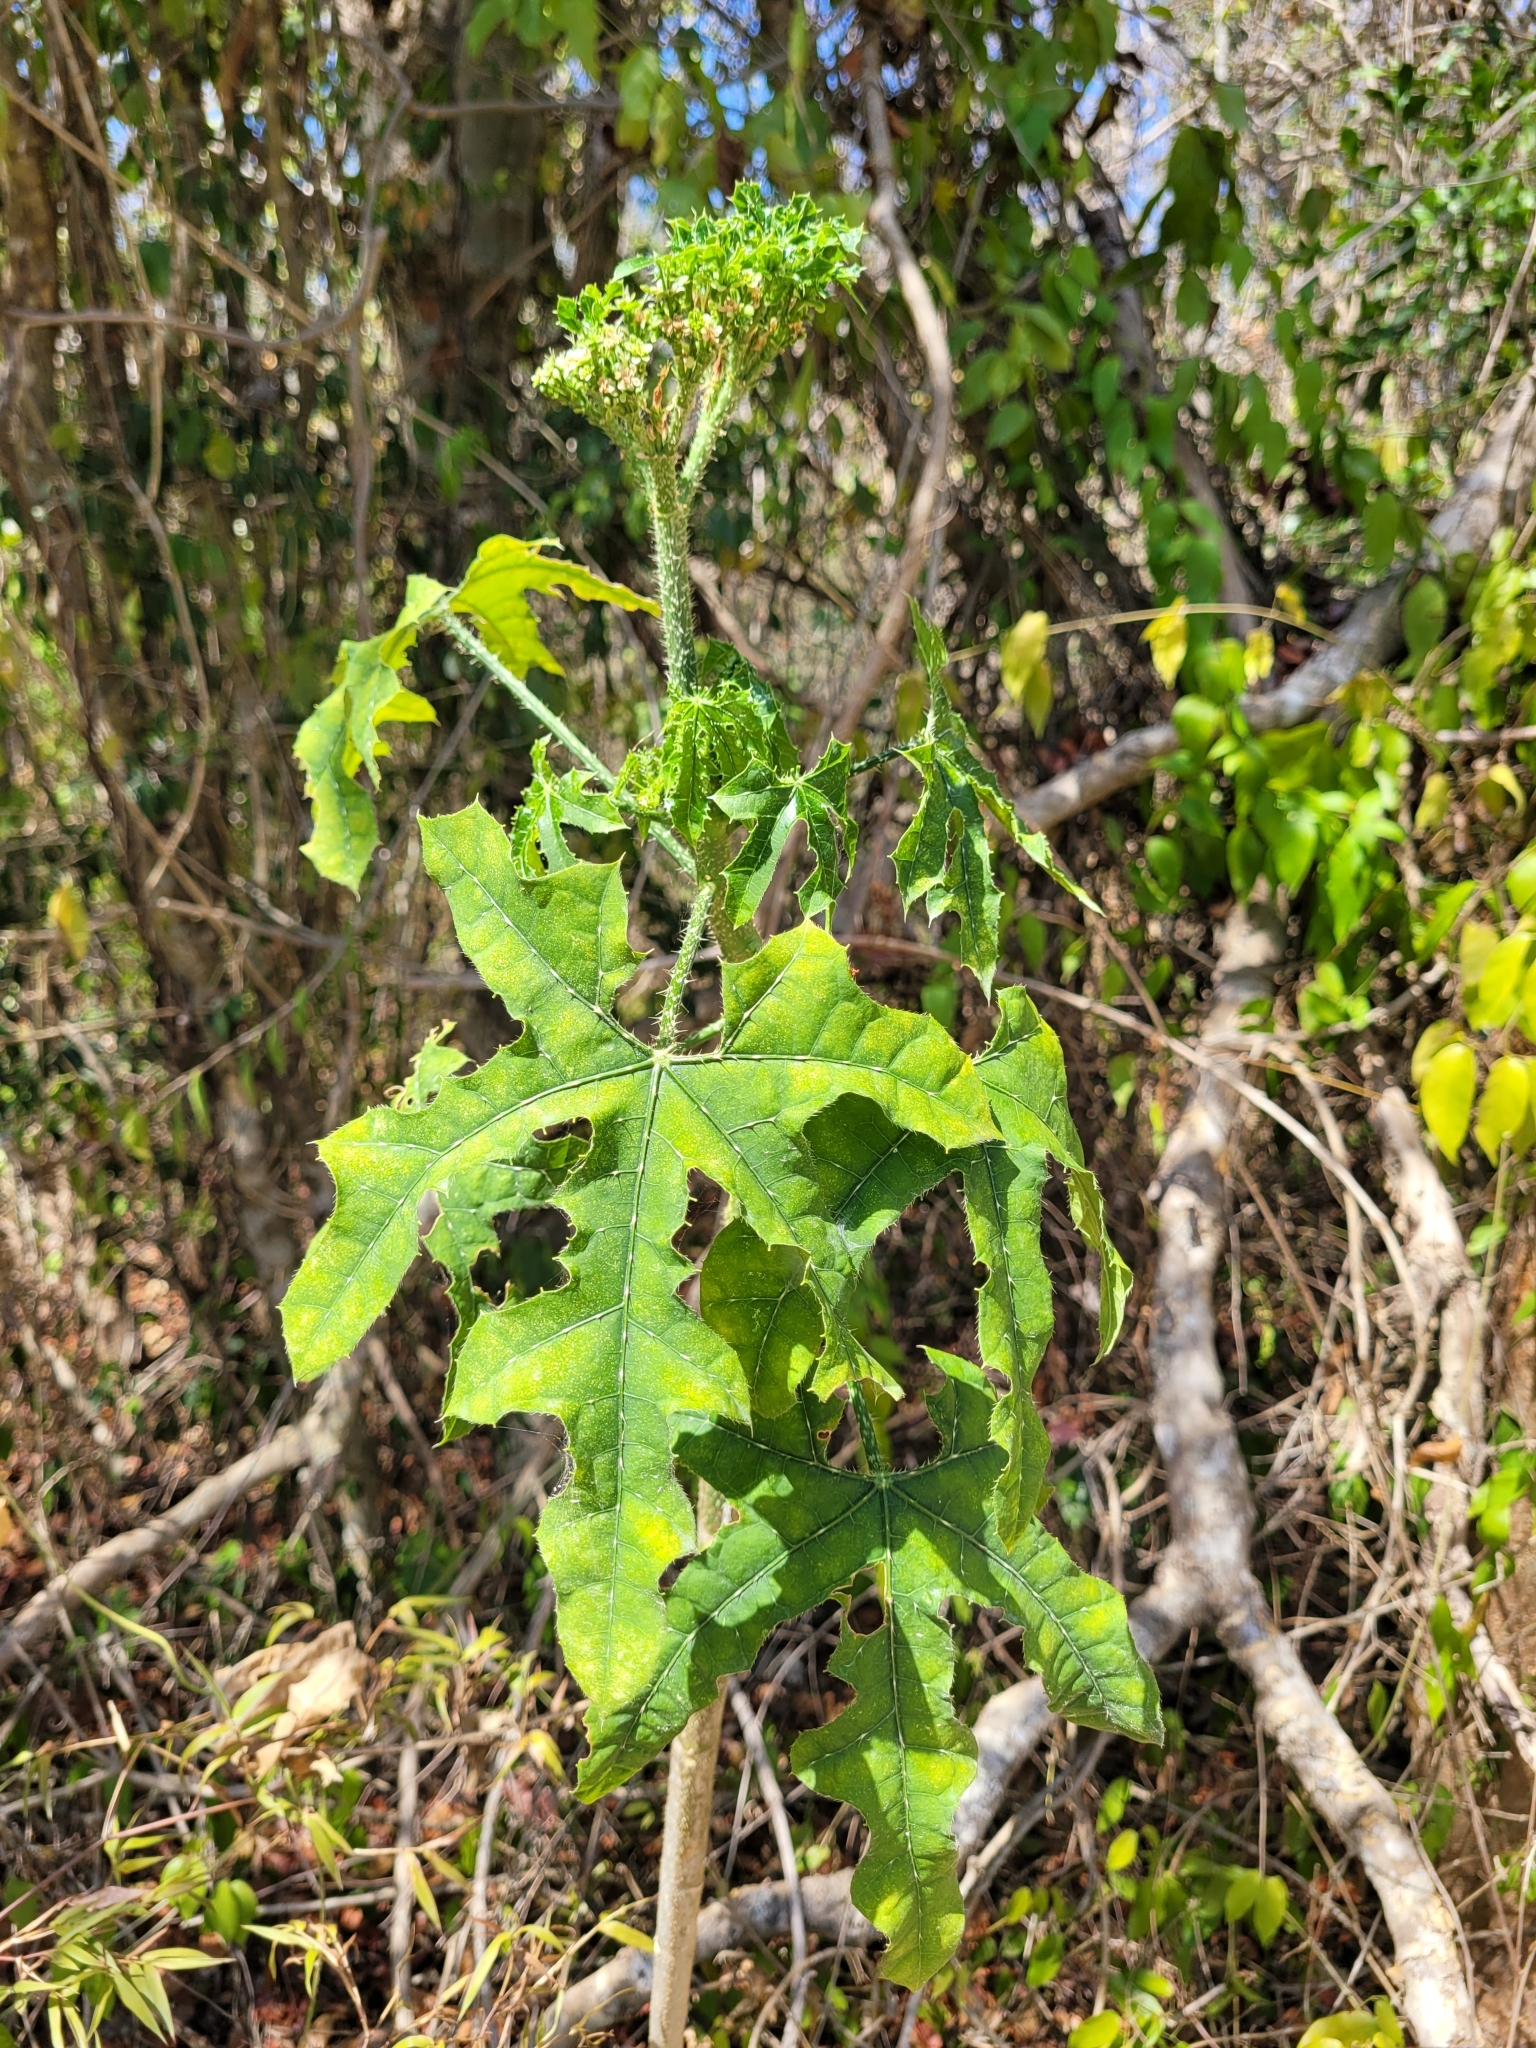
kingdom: Plantae
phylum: Tracheophyta
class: Magnoliopsida
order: Malpighiales
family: Euphorbiaceae
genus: Cnidoscolus
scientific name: Cnidoscolus aconitifolius
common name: Cabbage-star
